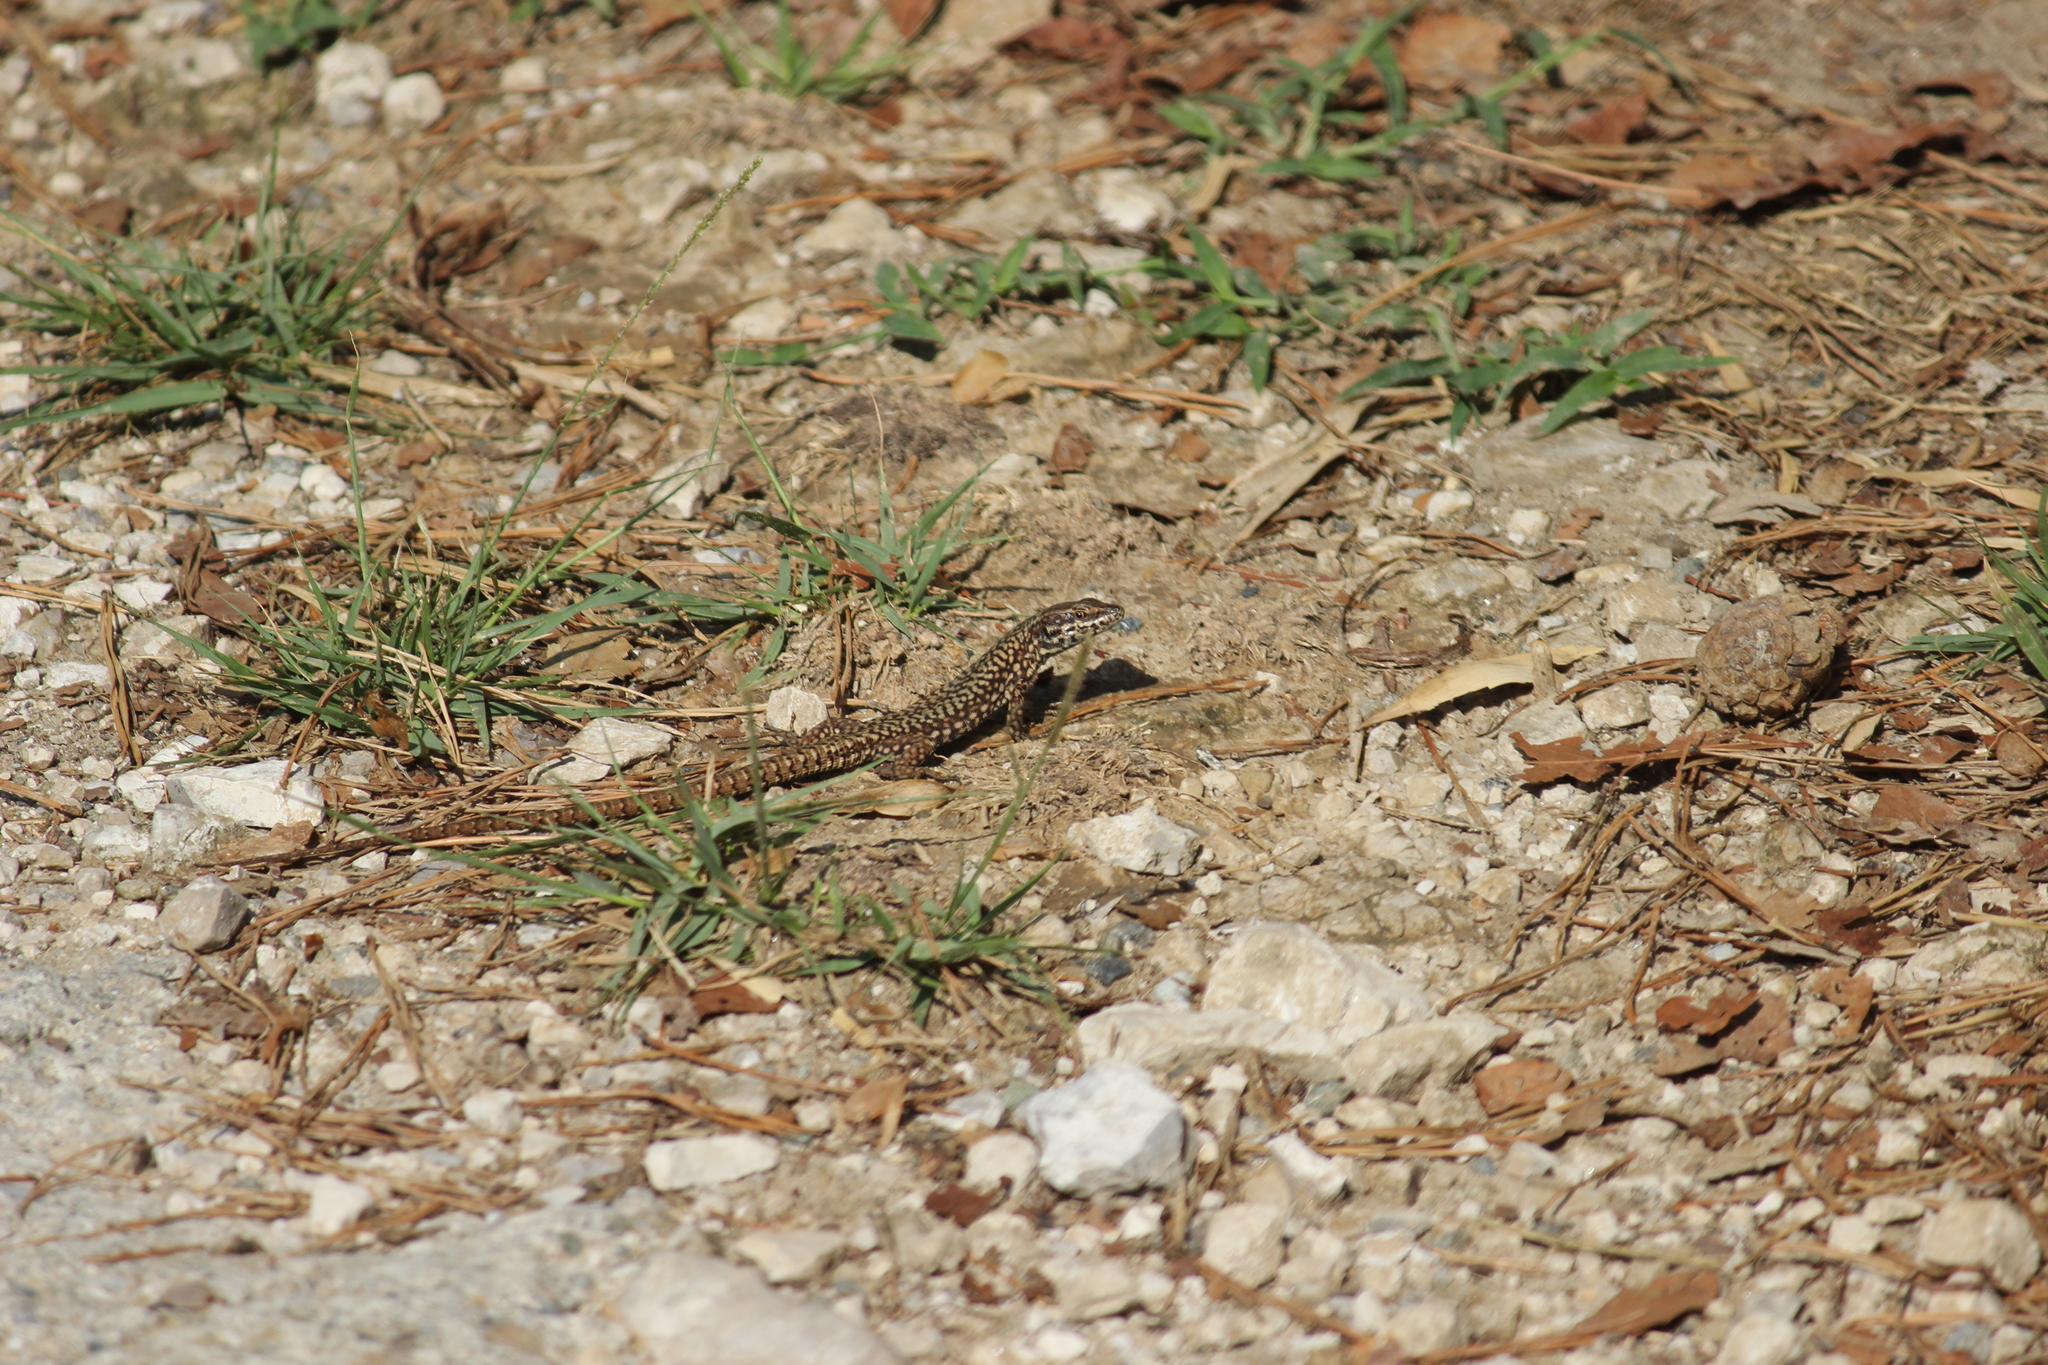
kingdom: Animalia
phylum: Chordata
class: Squamata
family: Lacertidae
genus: Podarcis
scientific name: Podarcis muralis
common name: Common wall lizard
